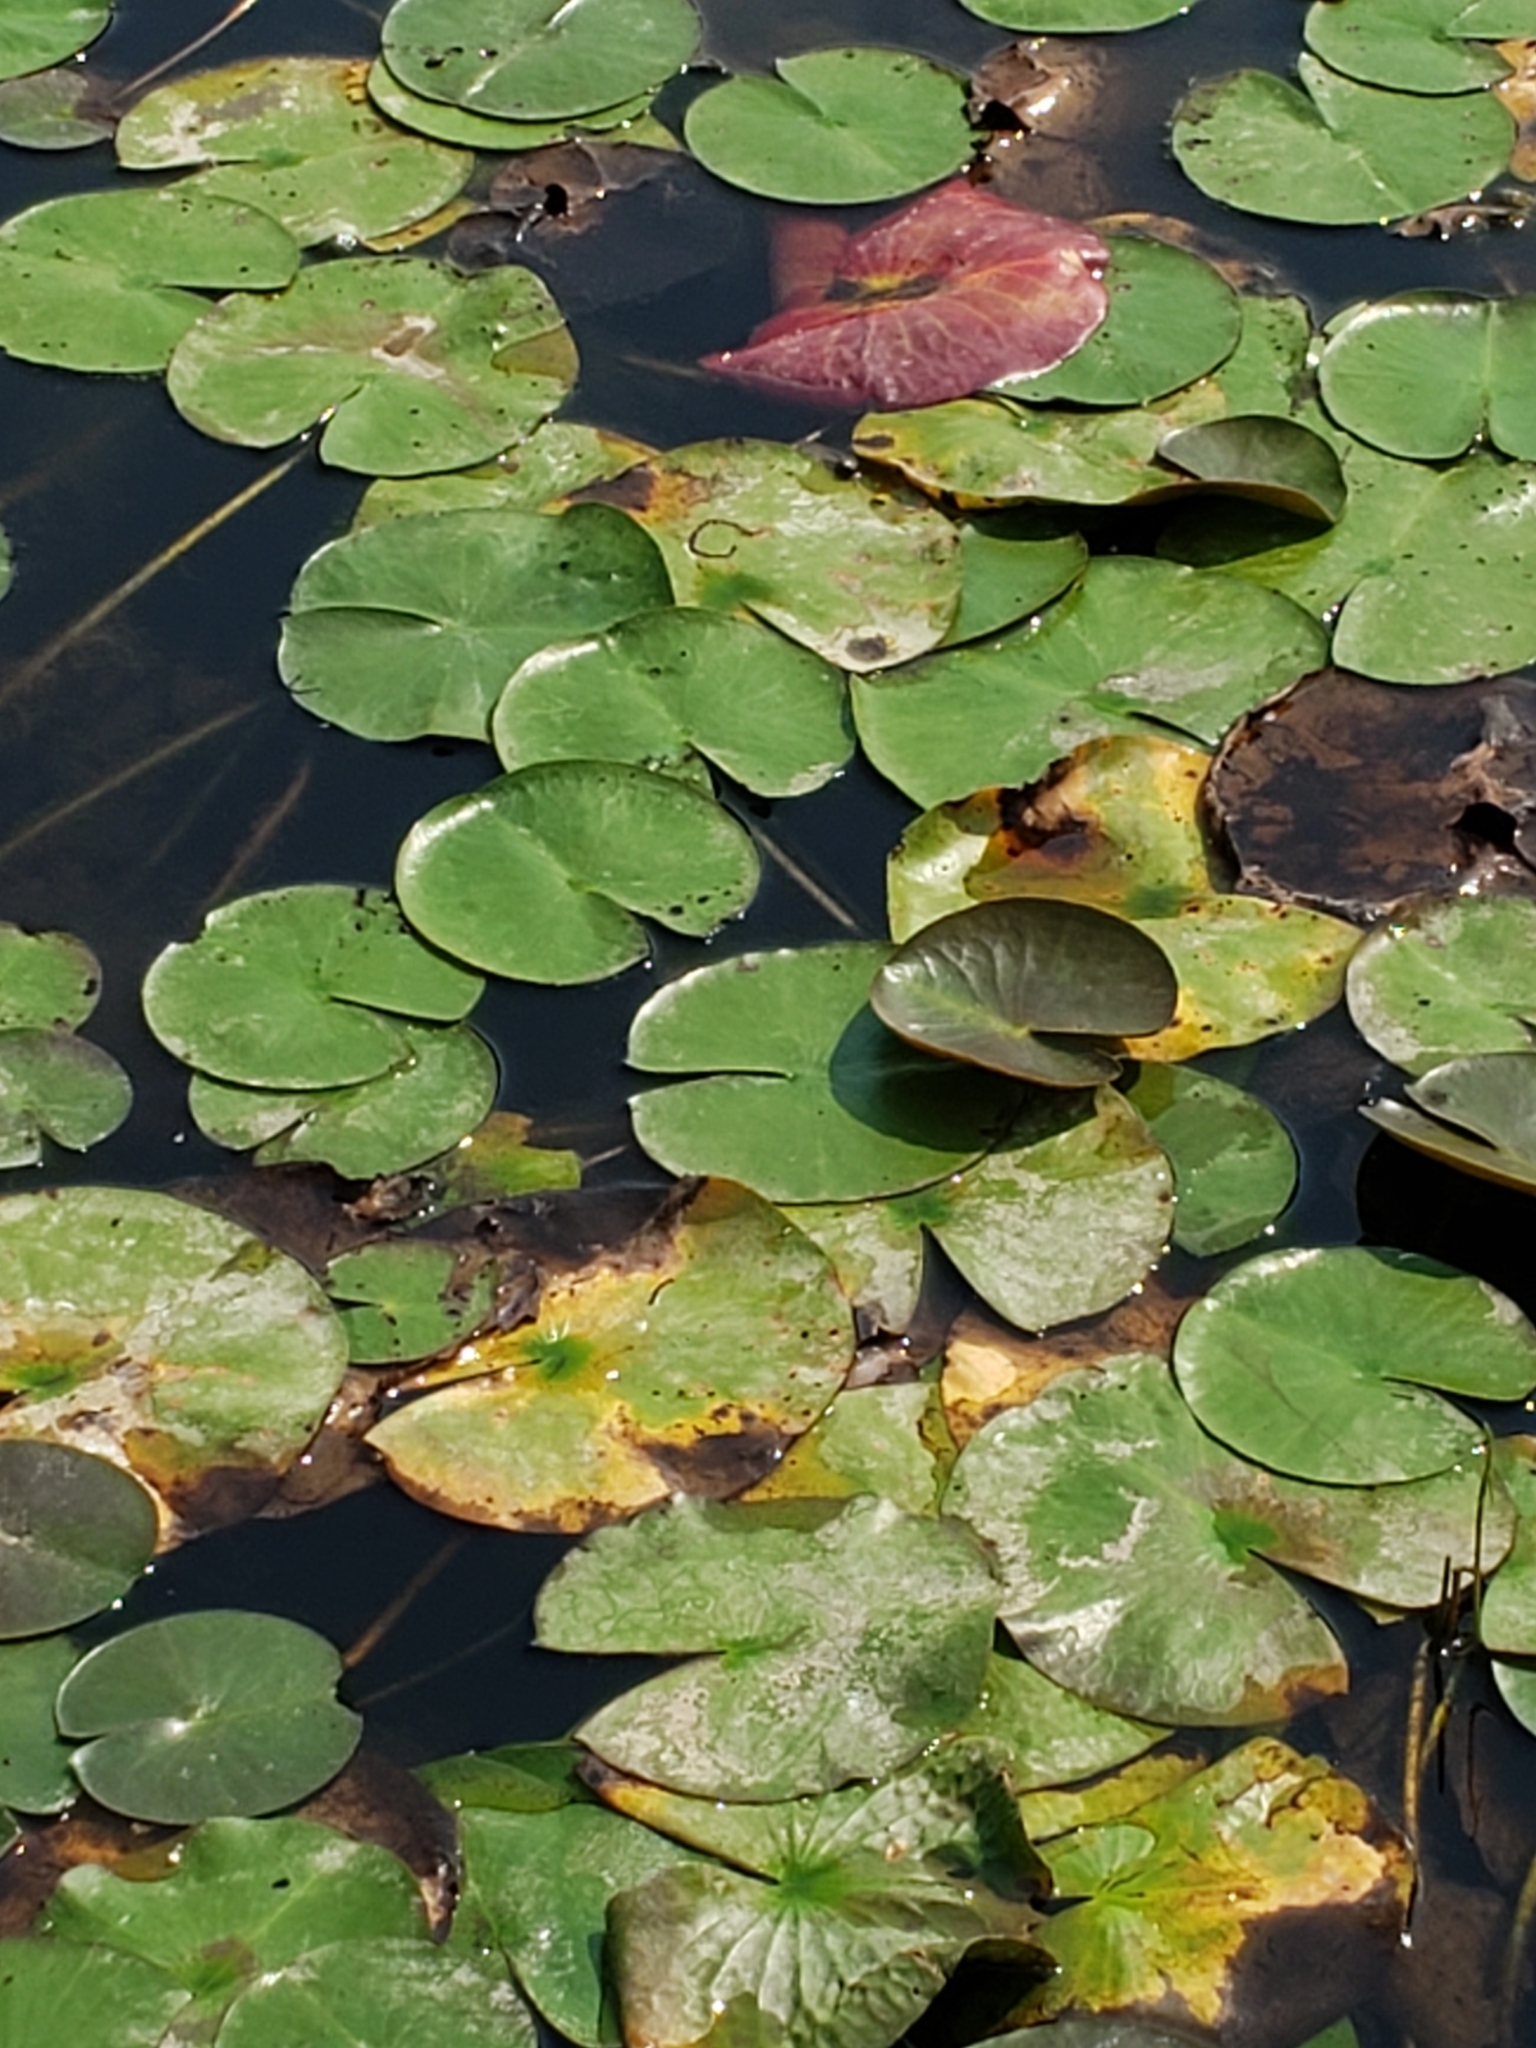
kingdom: Plantae
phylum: Tracheophyta
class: Magnoliopsida
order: Nymphaeales
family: Nymphaeaceae
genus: Nymphaea
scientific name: Nymphaea odorata
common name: Fragrant water-lily
